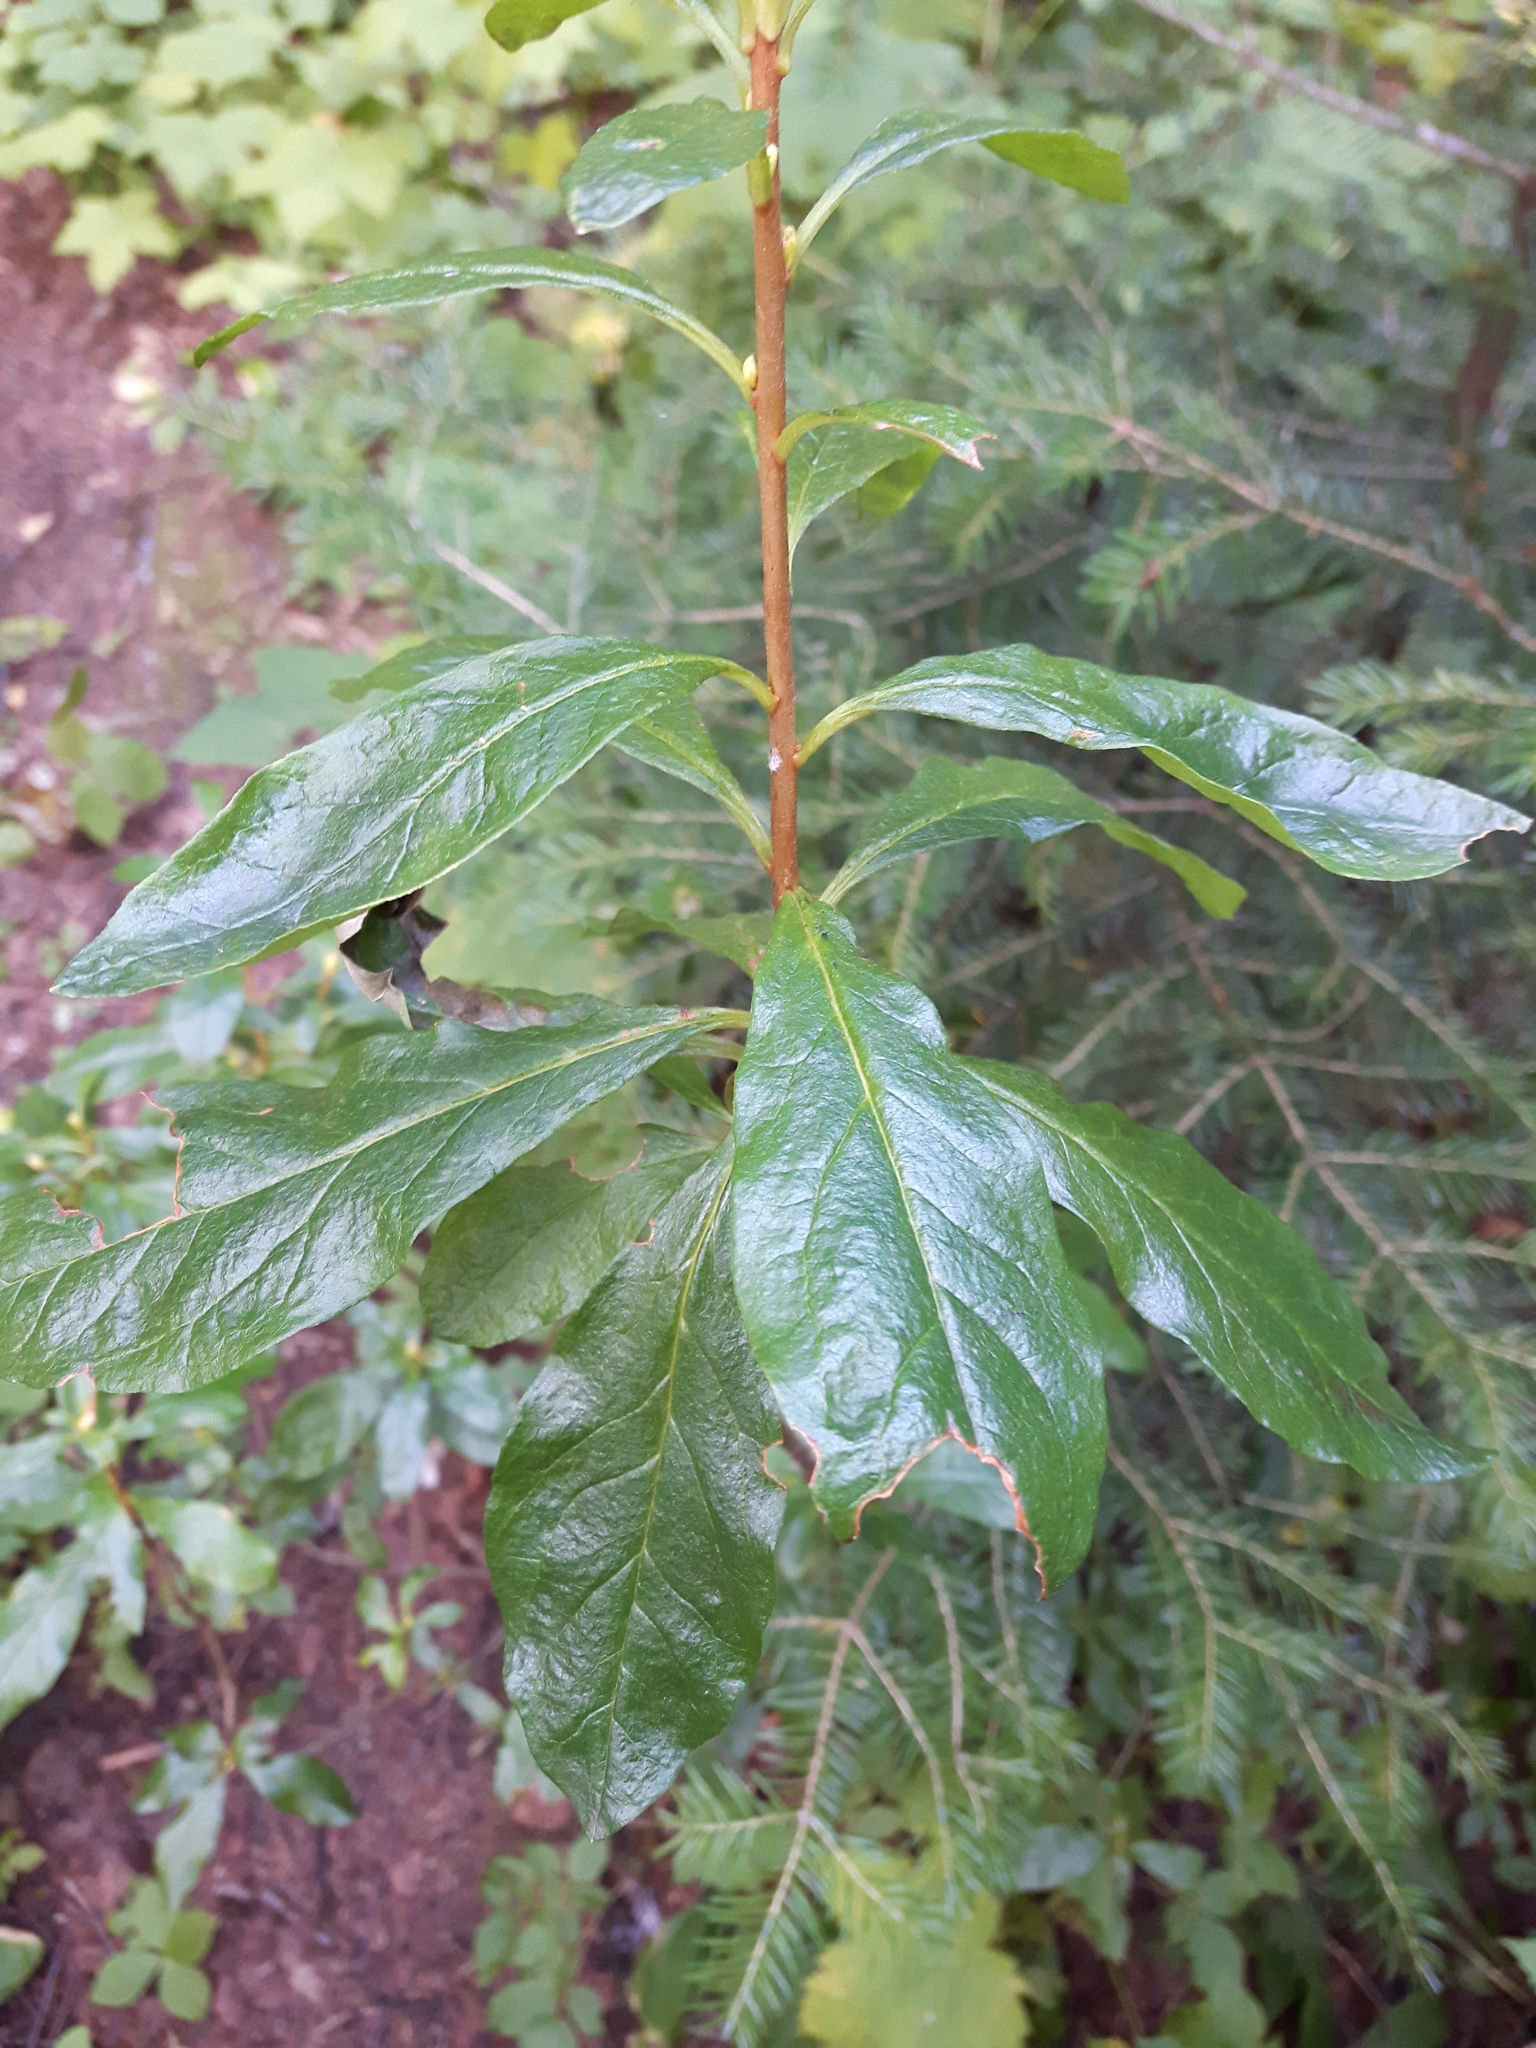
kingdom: Plantae
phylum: Tracheophyta
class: Magnoliopsida
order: Ericales
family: Ericaceae
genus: Rhododendron
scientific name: Rhododendron albiflorum
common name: White rhododendron
